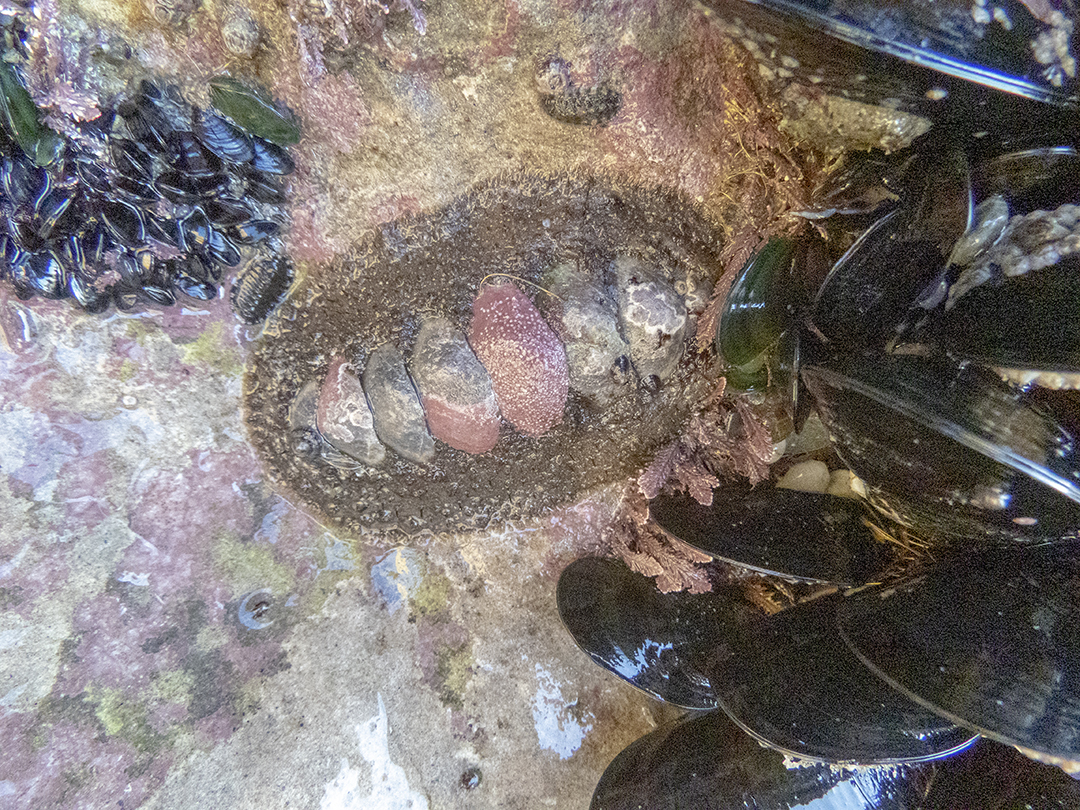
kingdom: Animalia
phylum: Mollusca
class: Polyplacophora
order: Chitonida
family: Mopaliidae
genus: Plaxiphora
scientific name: Plaxiphora obtecta
